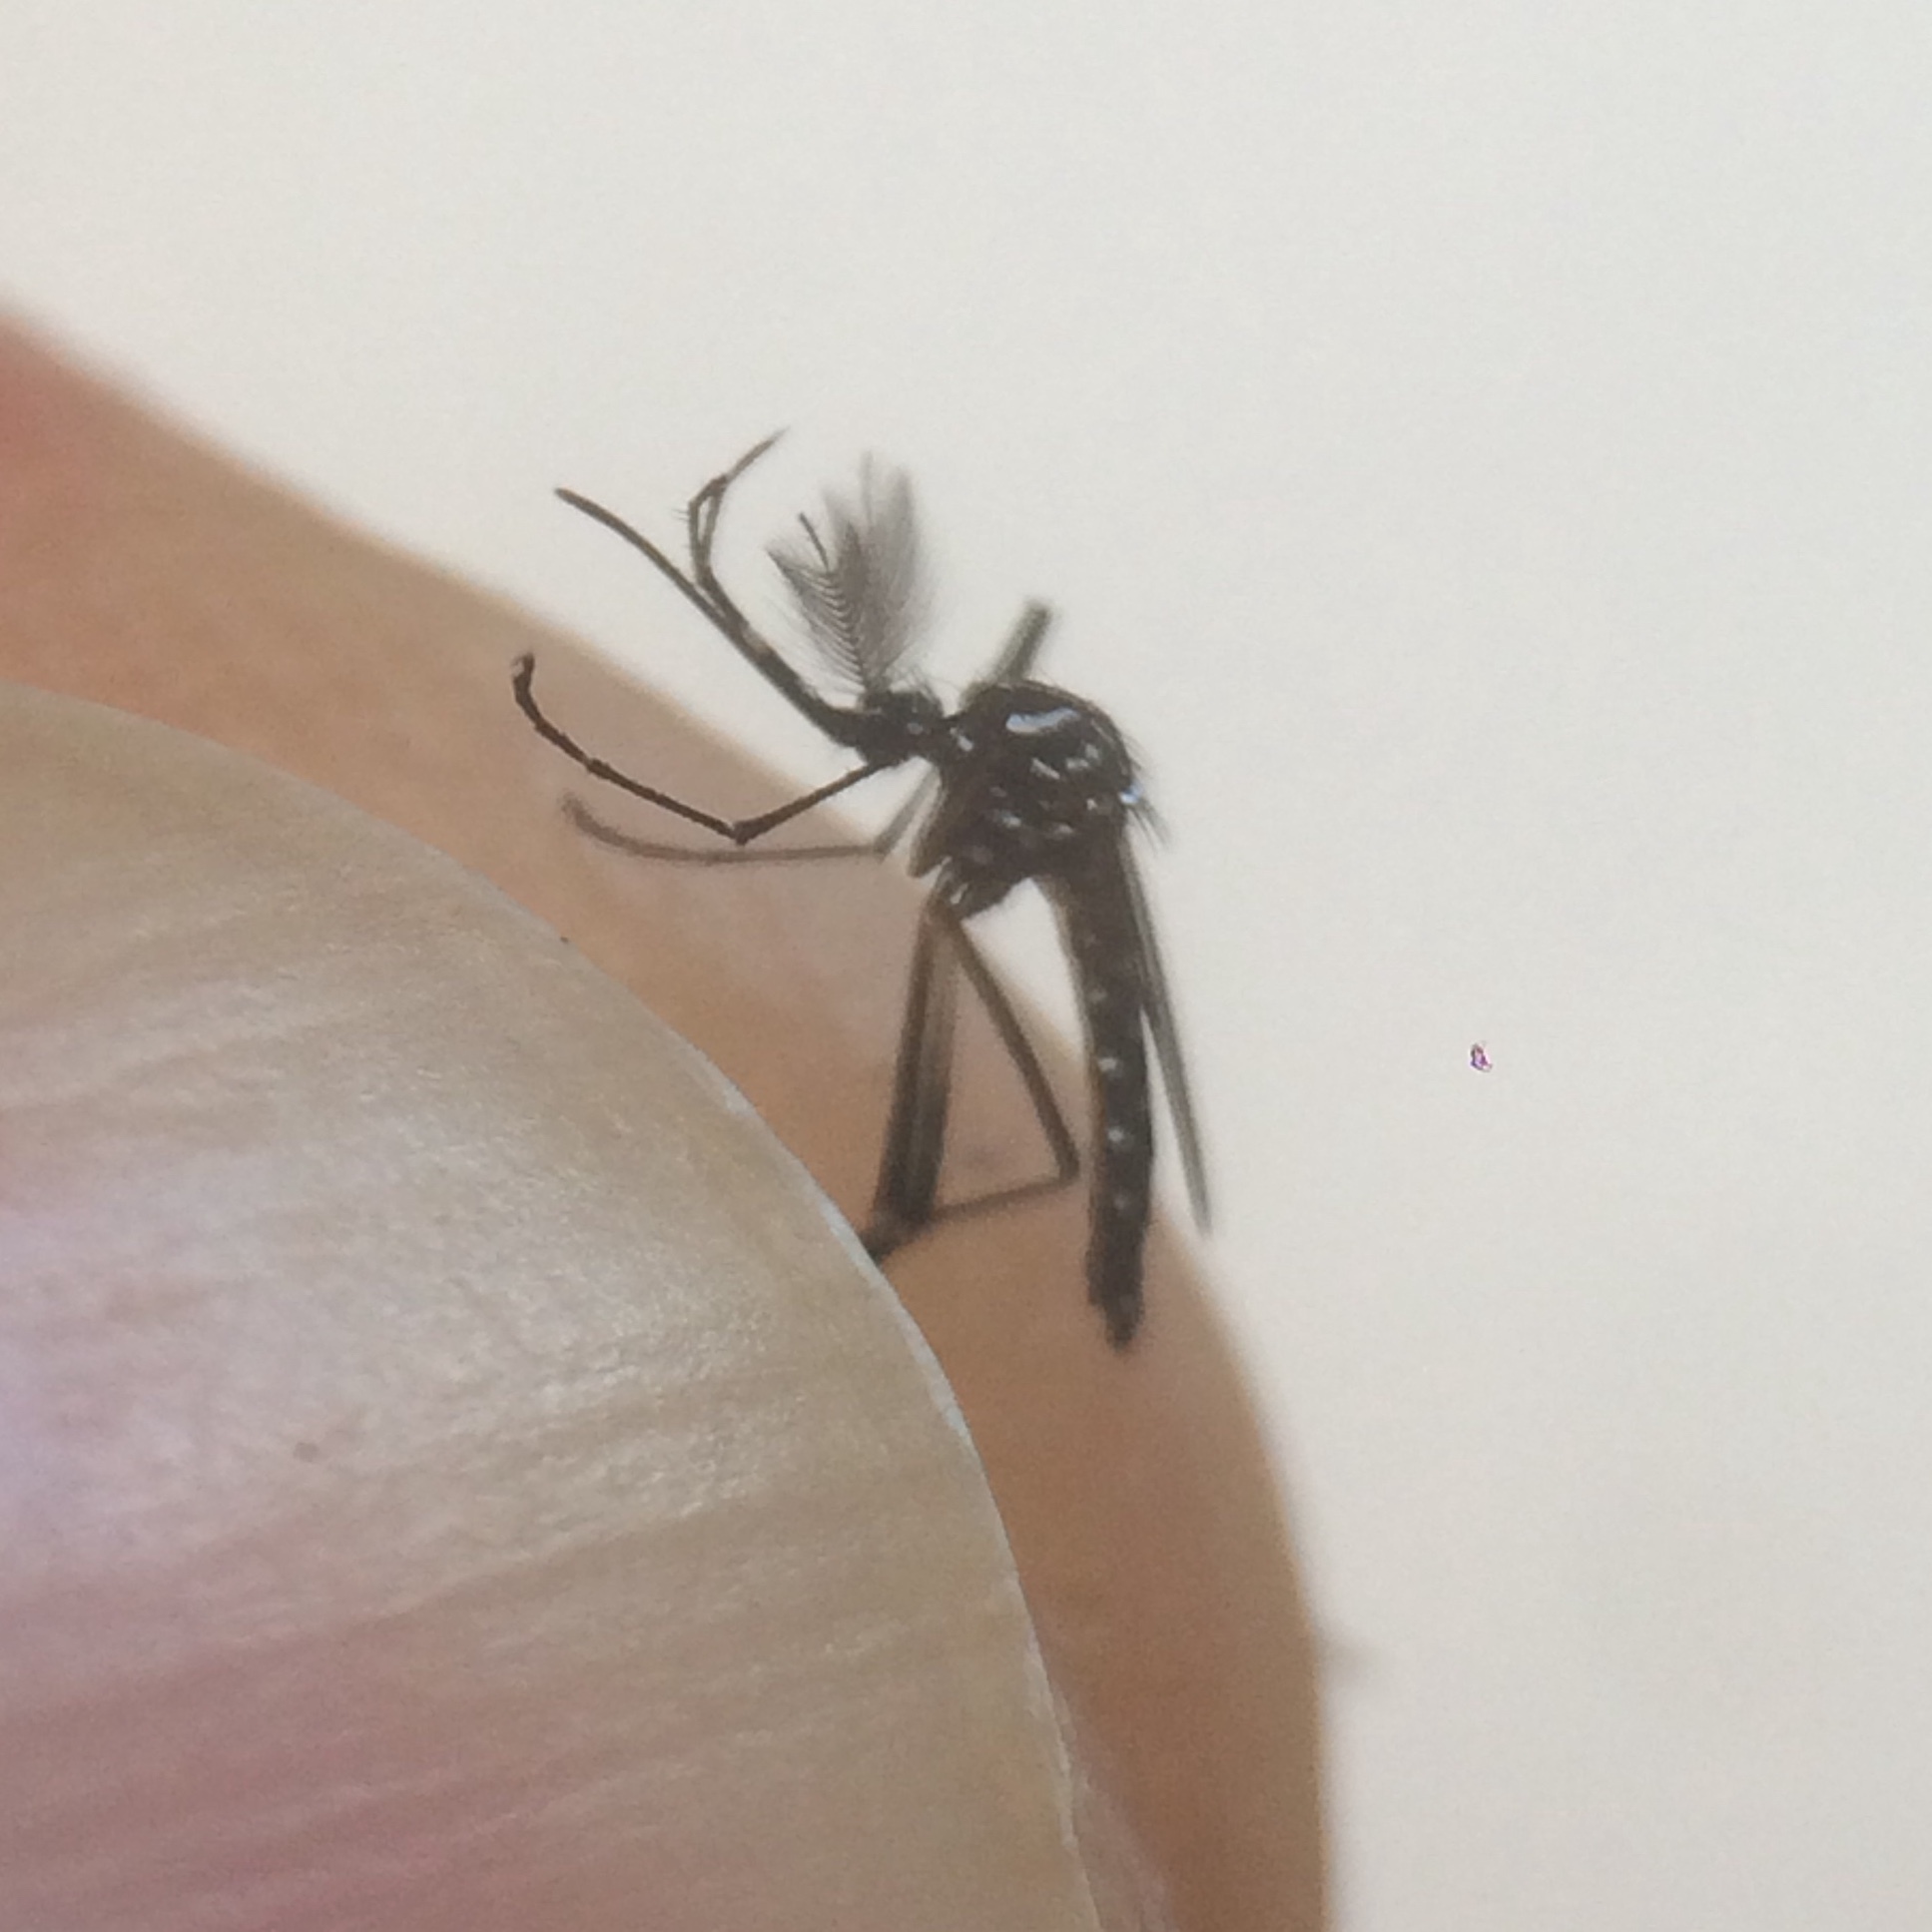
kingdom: Animalia
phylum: Arthropoda
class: Insecta
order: Diptera
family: Culicidae
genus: Aedes
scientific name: Aedes aegypti
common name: Yellow fever mosquito
